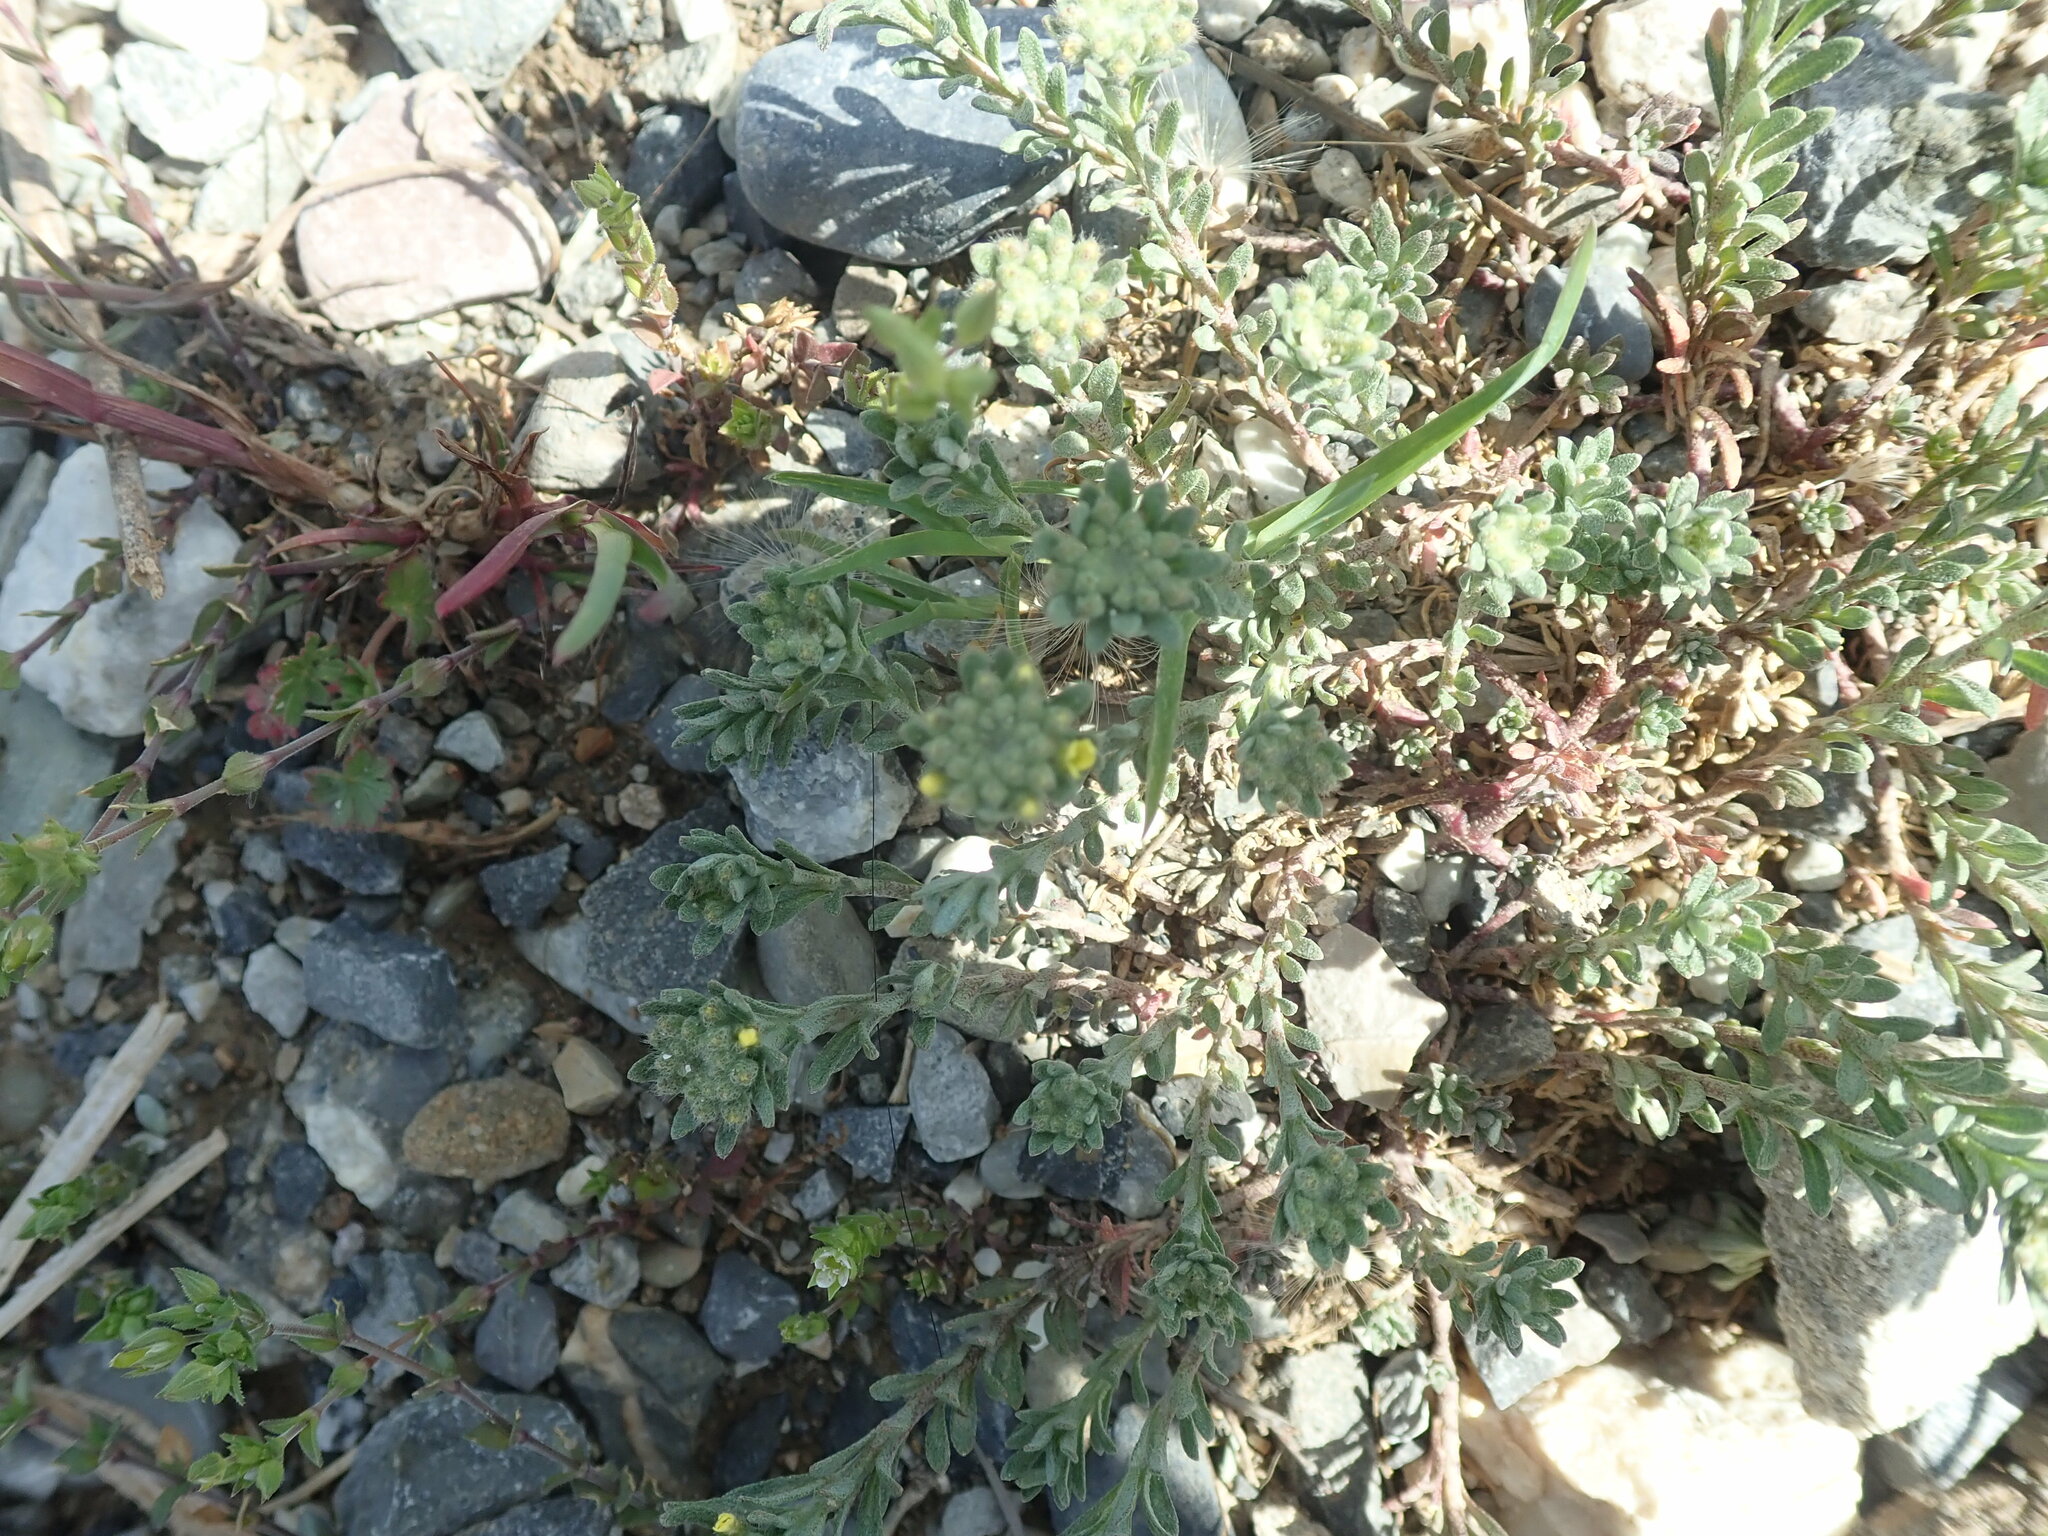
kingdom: Plantae
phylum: Tracheophyta
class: Magnoliopsida
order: Brassicales
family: Brassicaceae
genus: Alyssum
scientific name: Alyssum alyssoides
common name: Small alison
